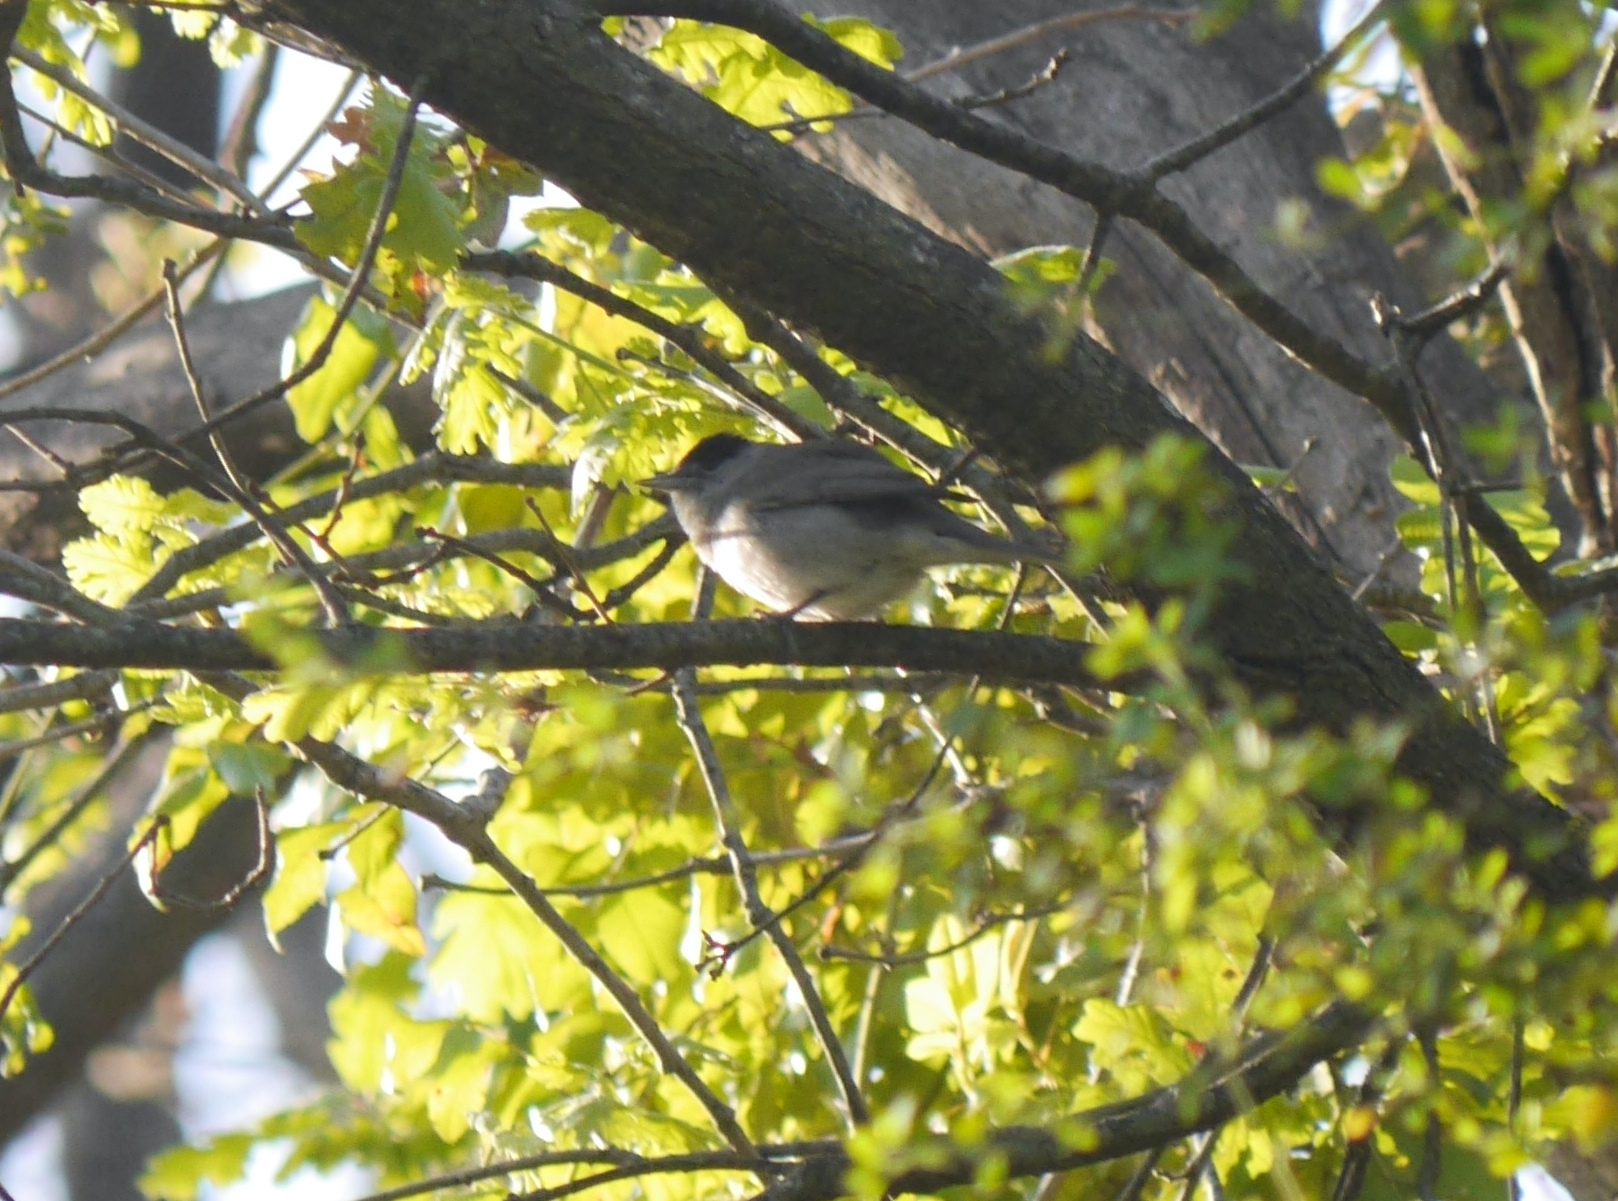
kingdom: Animalia
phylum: Chordata
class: Aves
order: Passeriformes
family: Sylviidae
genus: Sylvia
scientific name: Sylvia atricapilla
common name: Eurasian blackcap
